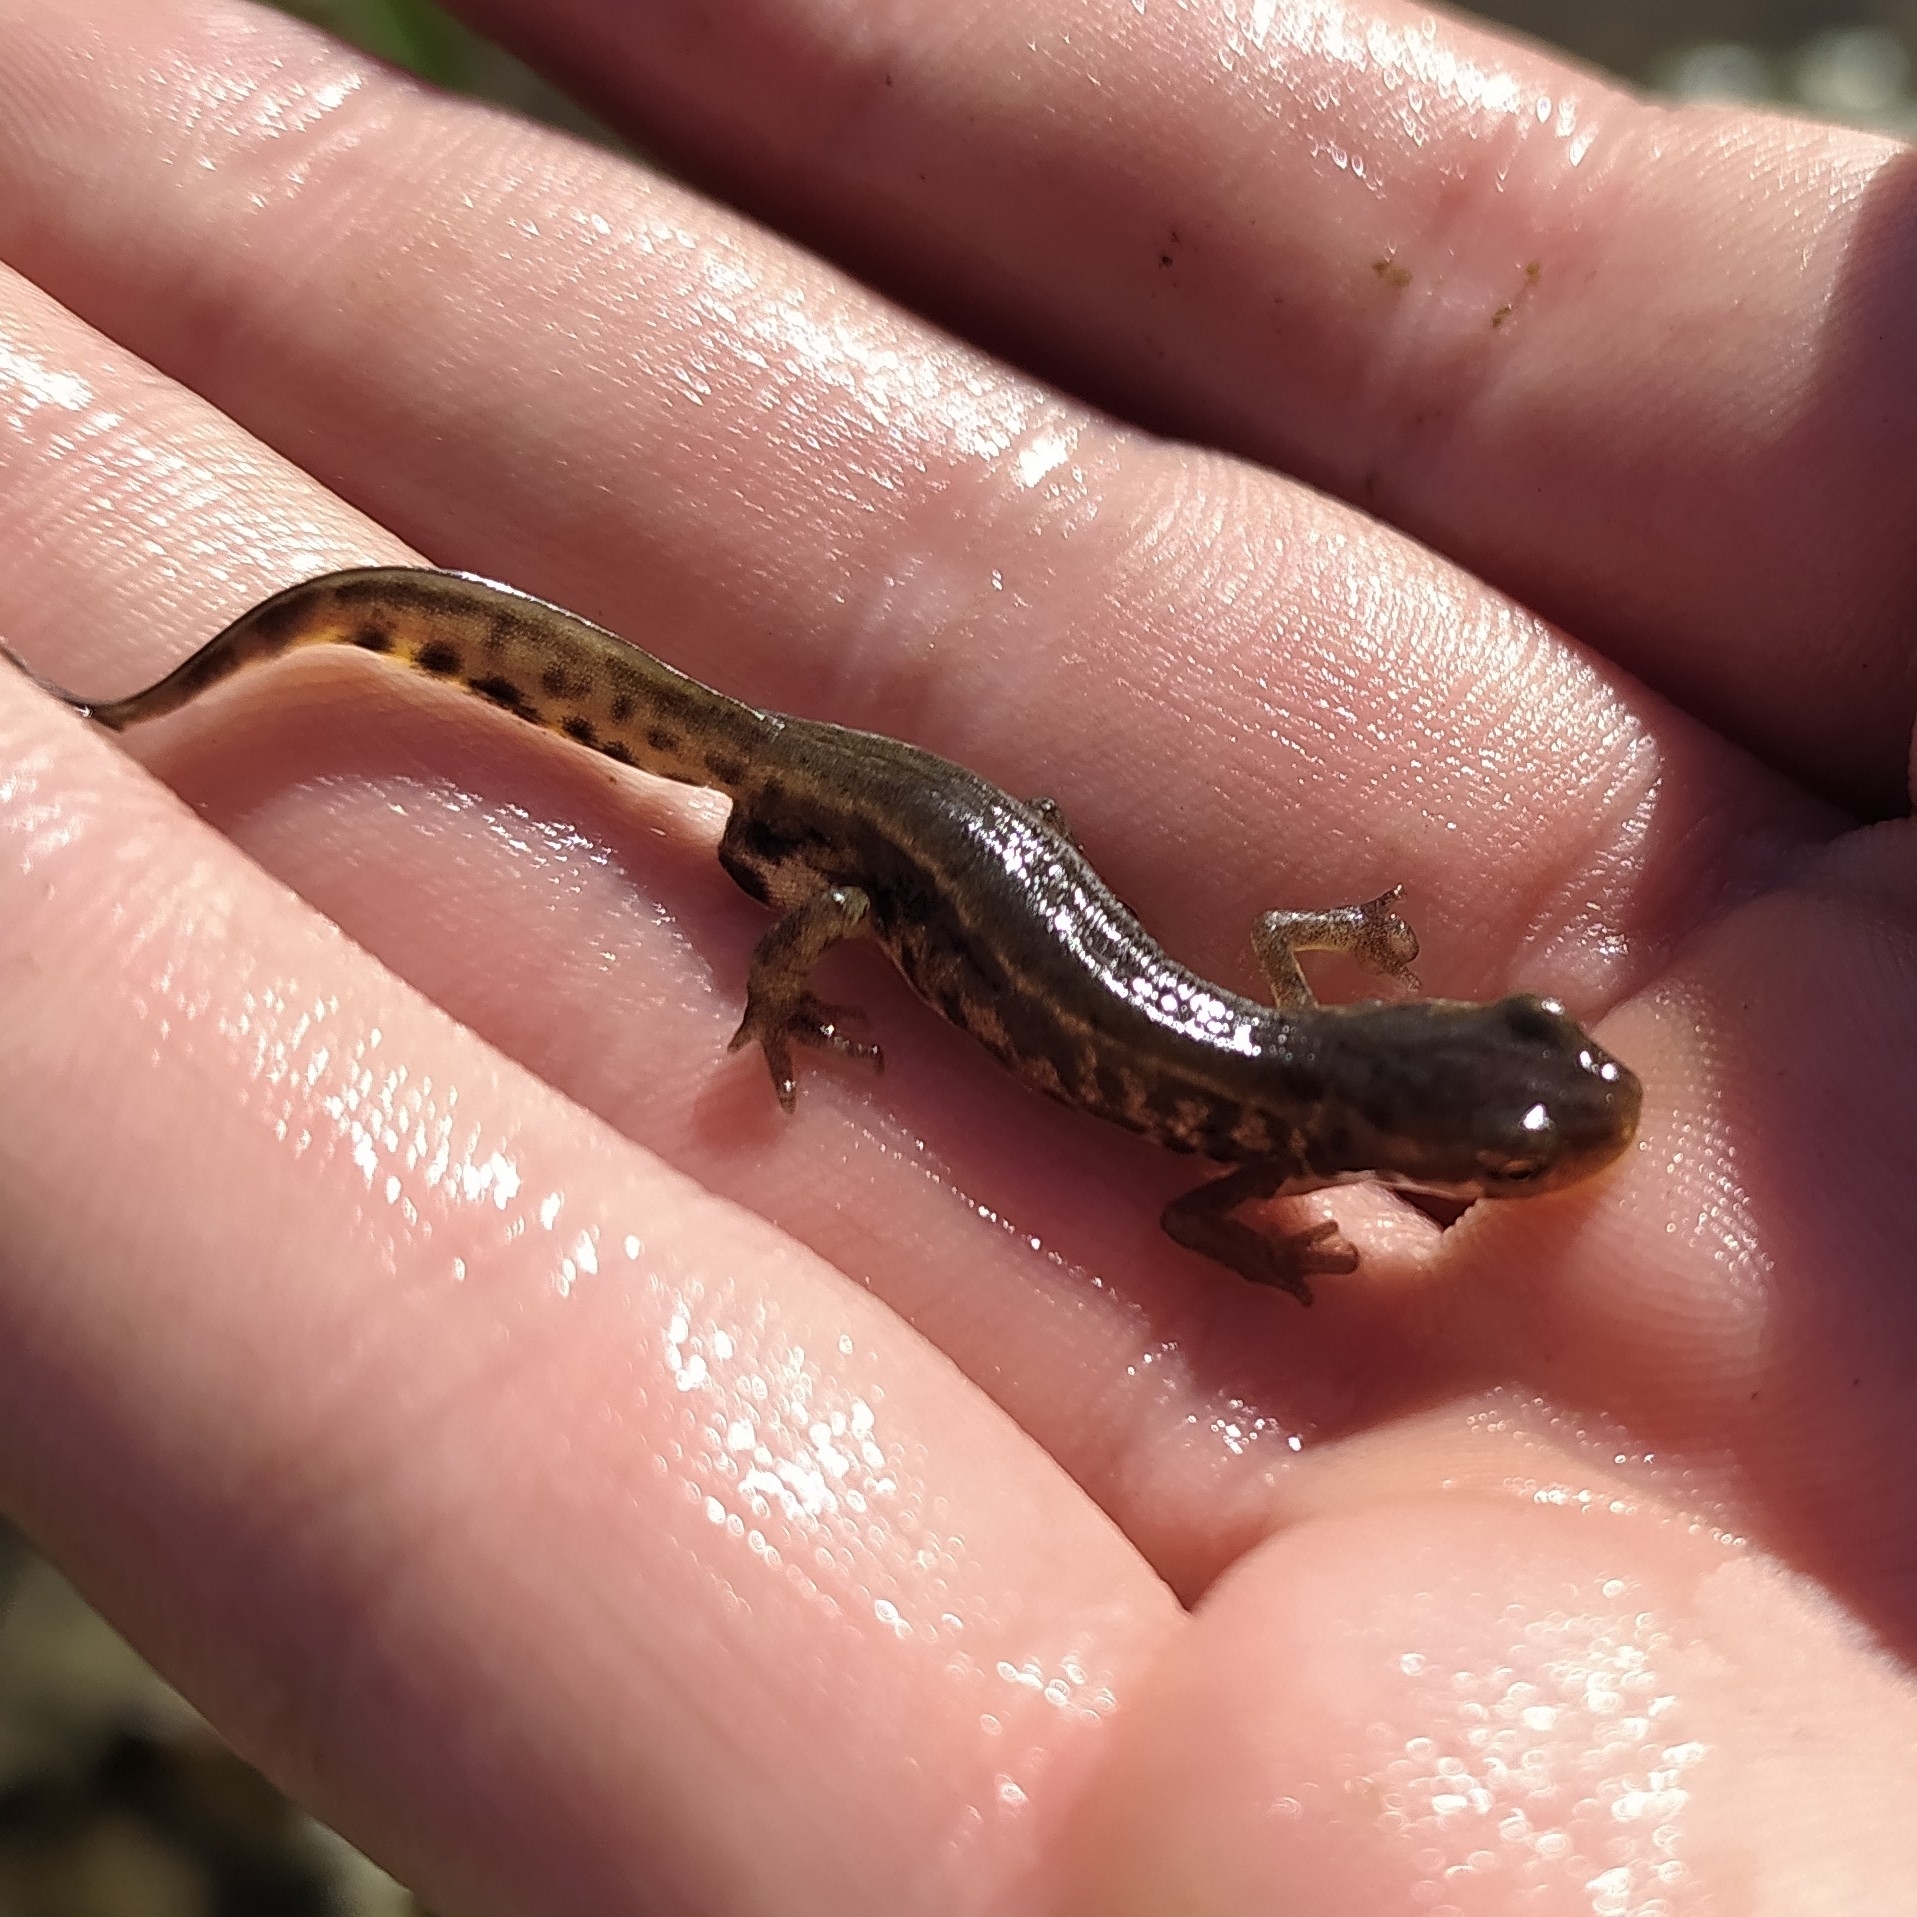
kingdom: Animalia
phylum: Chordata
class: Amphibia
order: Caudata
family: Salamandridae
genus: Lissotriton
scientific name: Lissotriton italicus
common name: Italian newt
